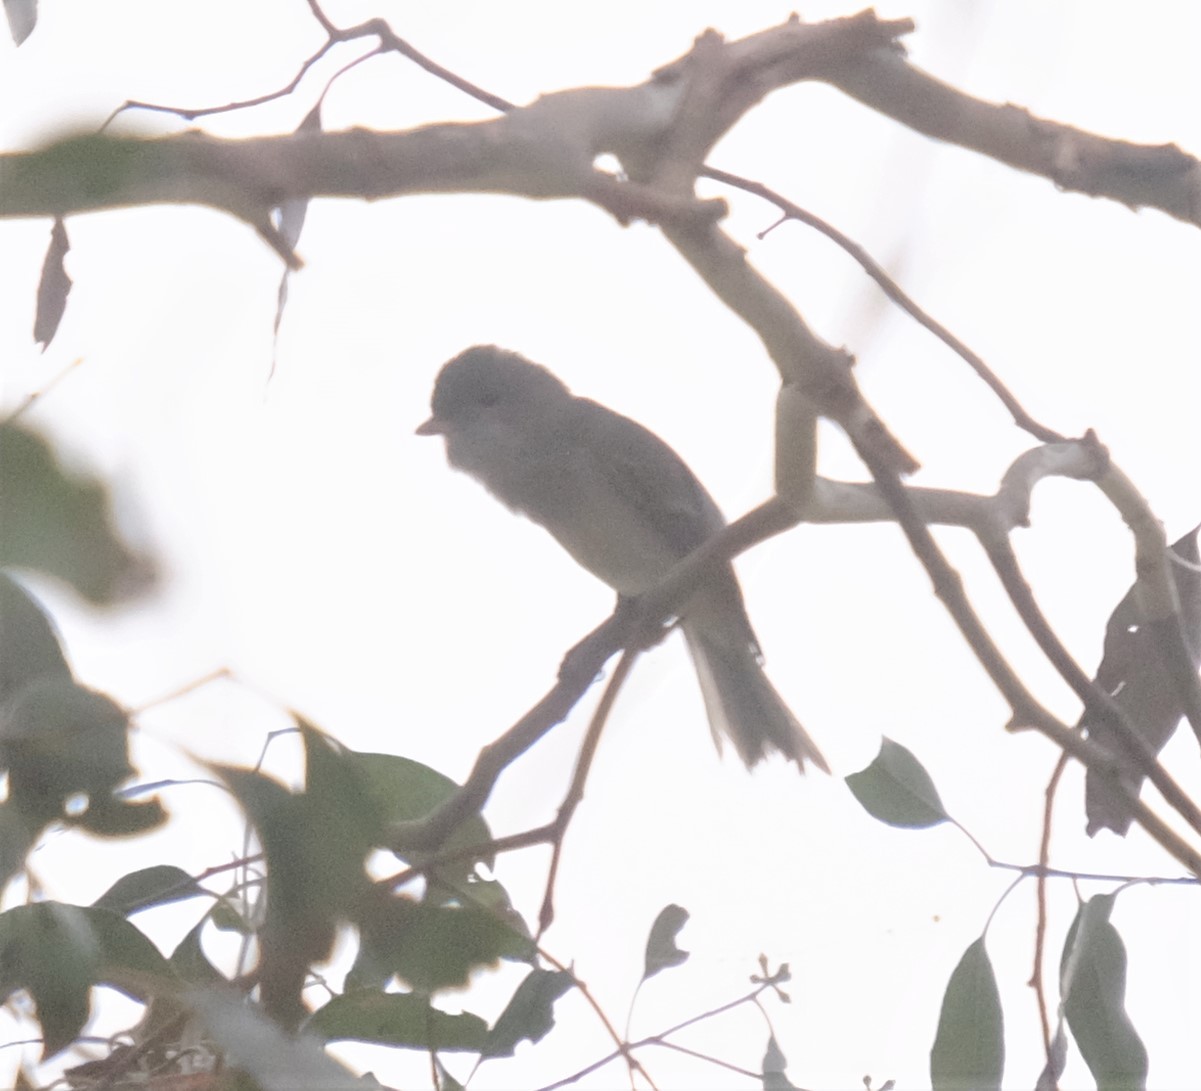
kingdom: Animalia
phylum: Chordata
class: Aves
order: Passeriformes
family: Pachycephalidae
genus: Pachycephala
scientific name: Pachycephala pectoralis
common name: Australian golden whistler
